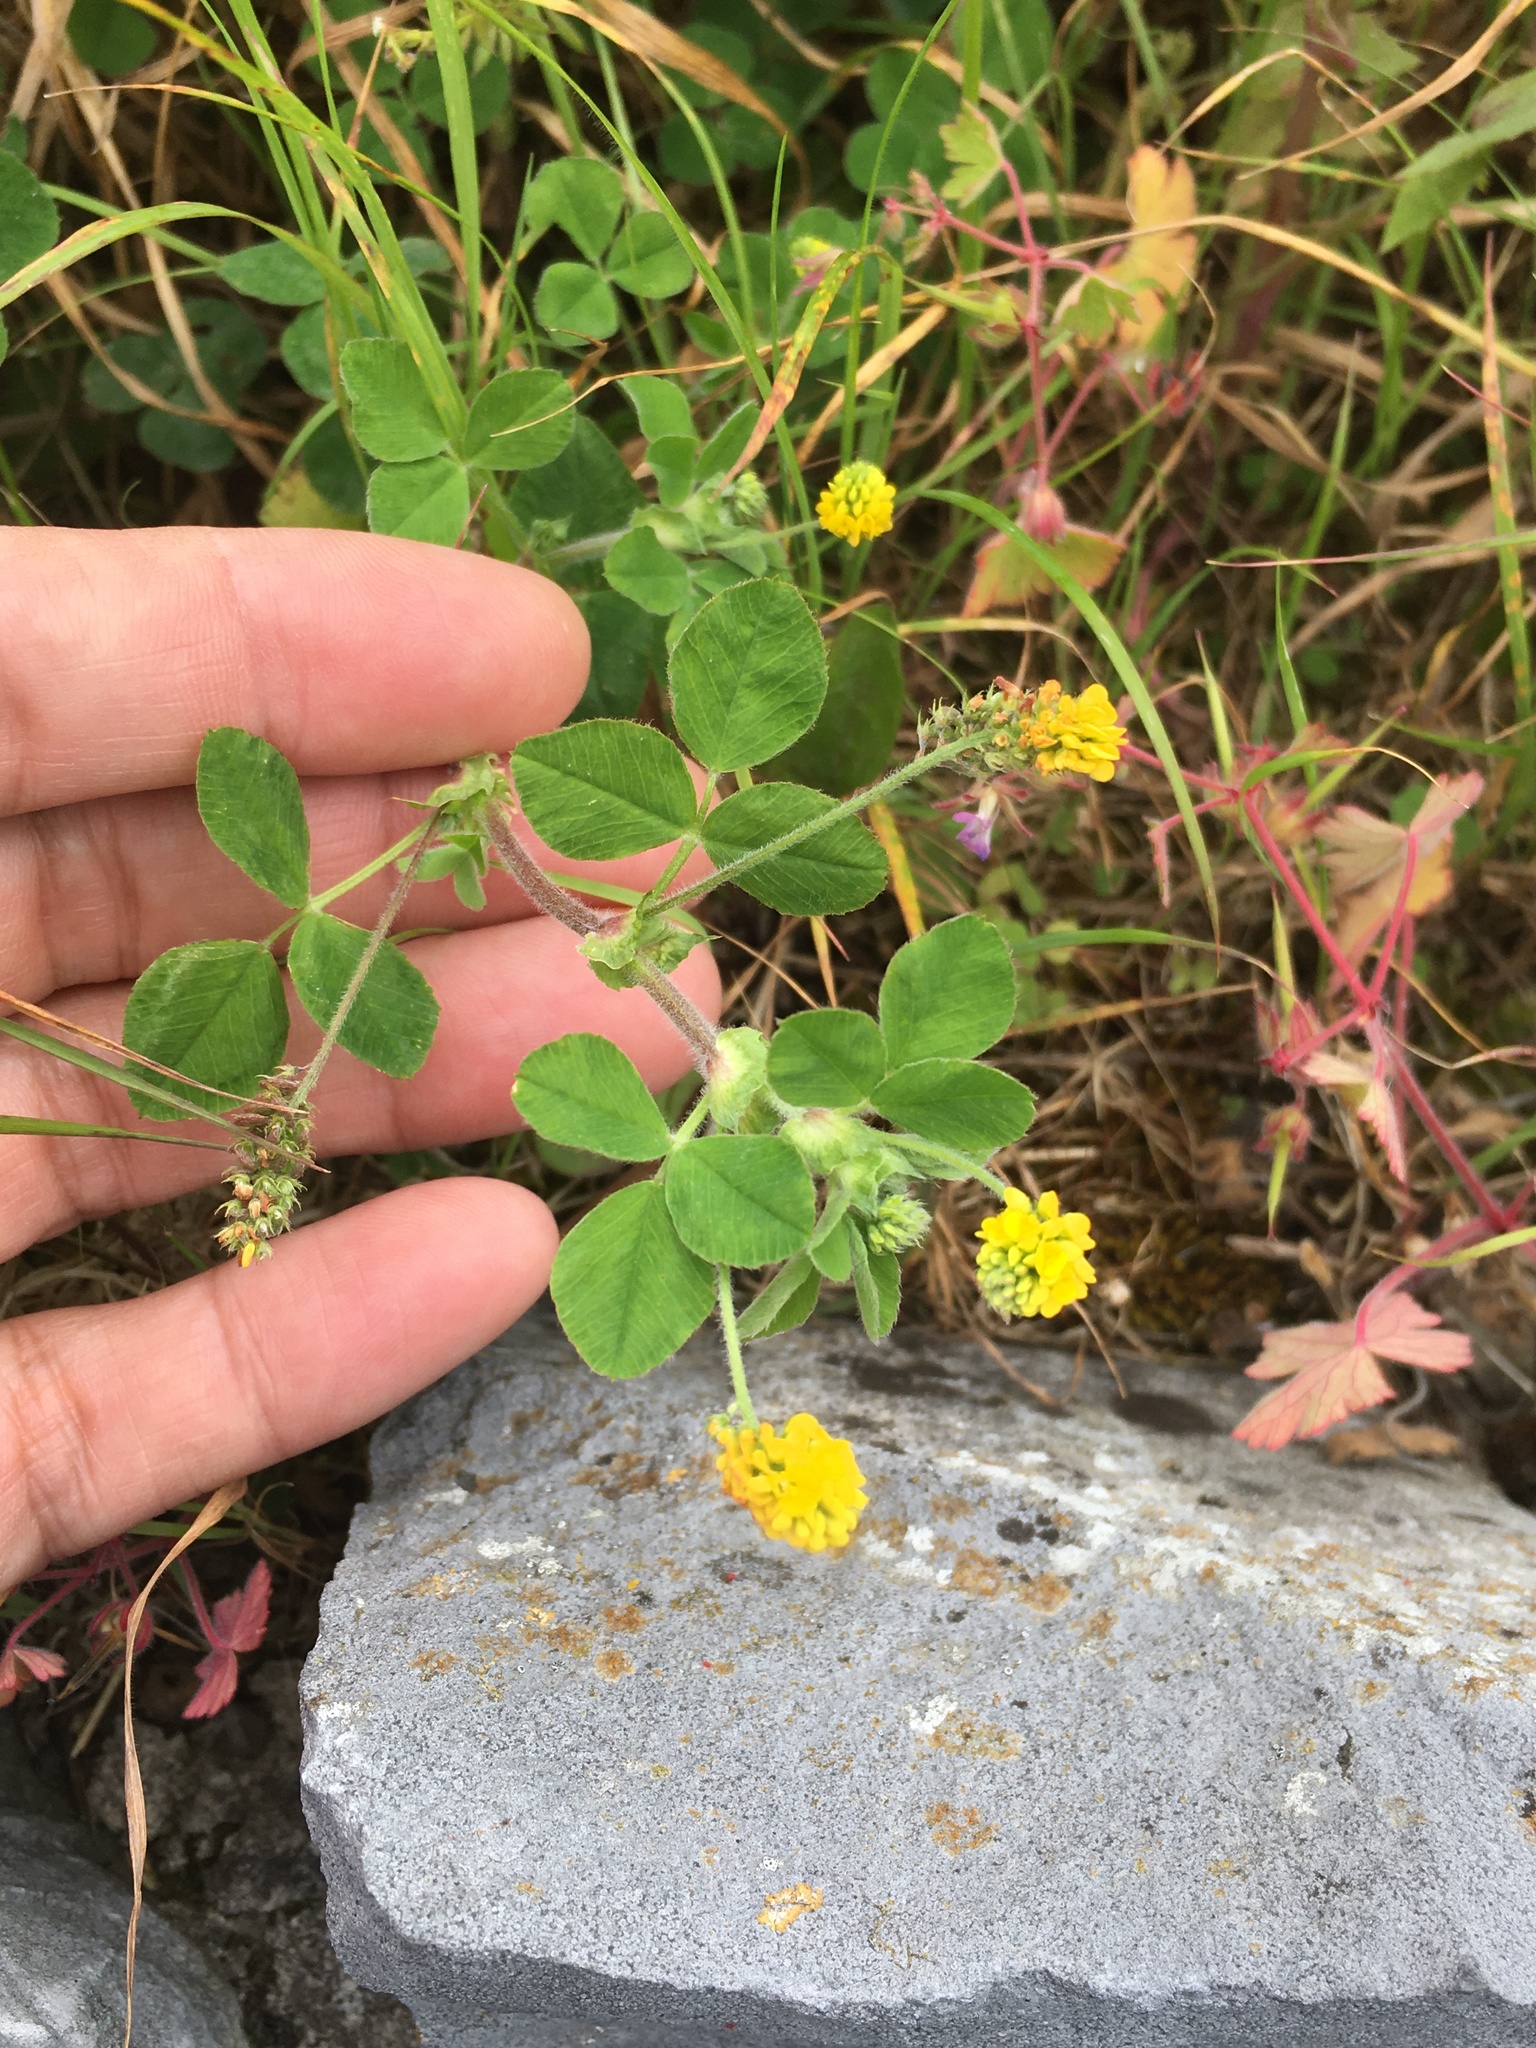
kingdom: Plantae
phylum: Tracheophyta
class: Magnoliopsida
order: Fabales
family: Fabaceae
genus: Medicago
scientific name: Medicago lupulina
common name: Black medick
